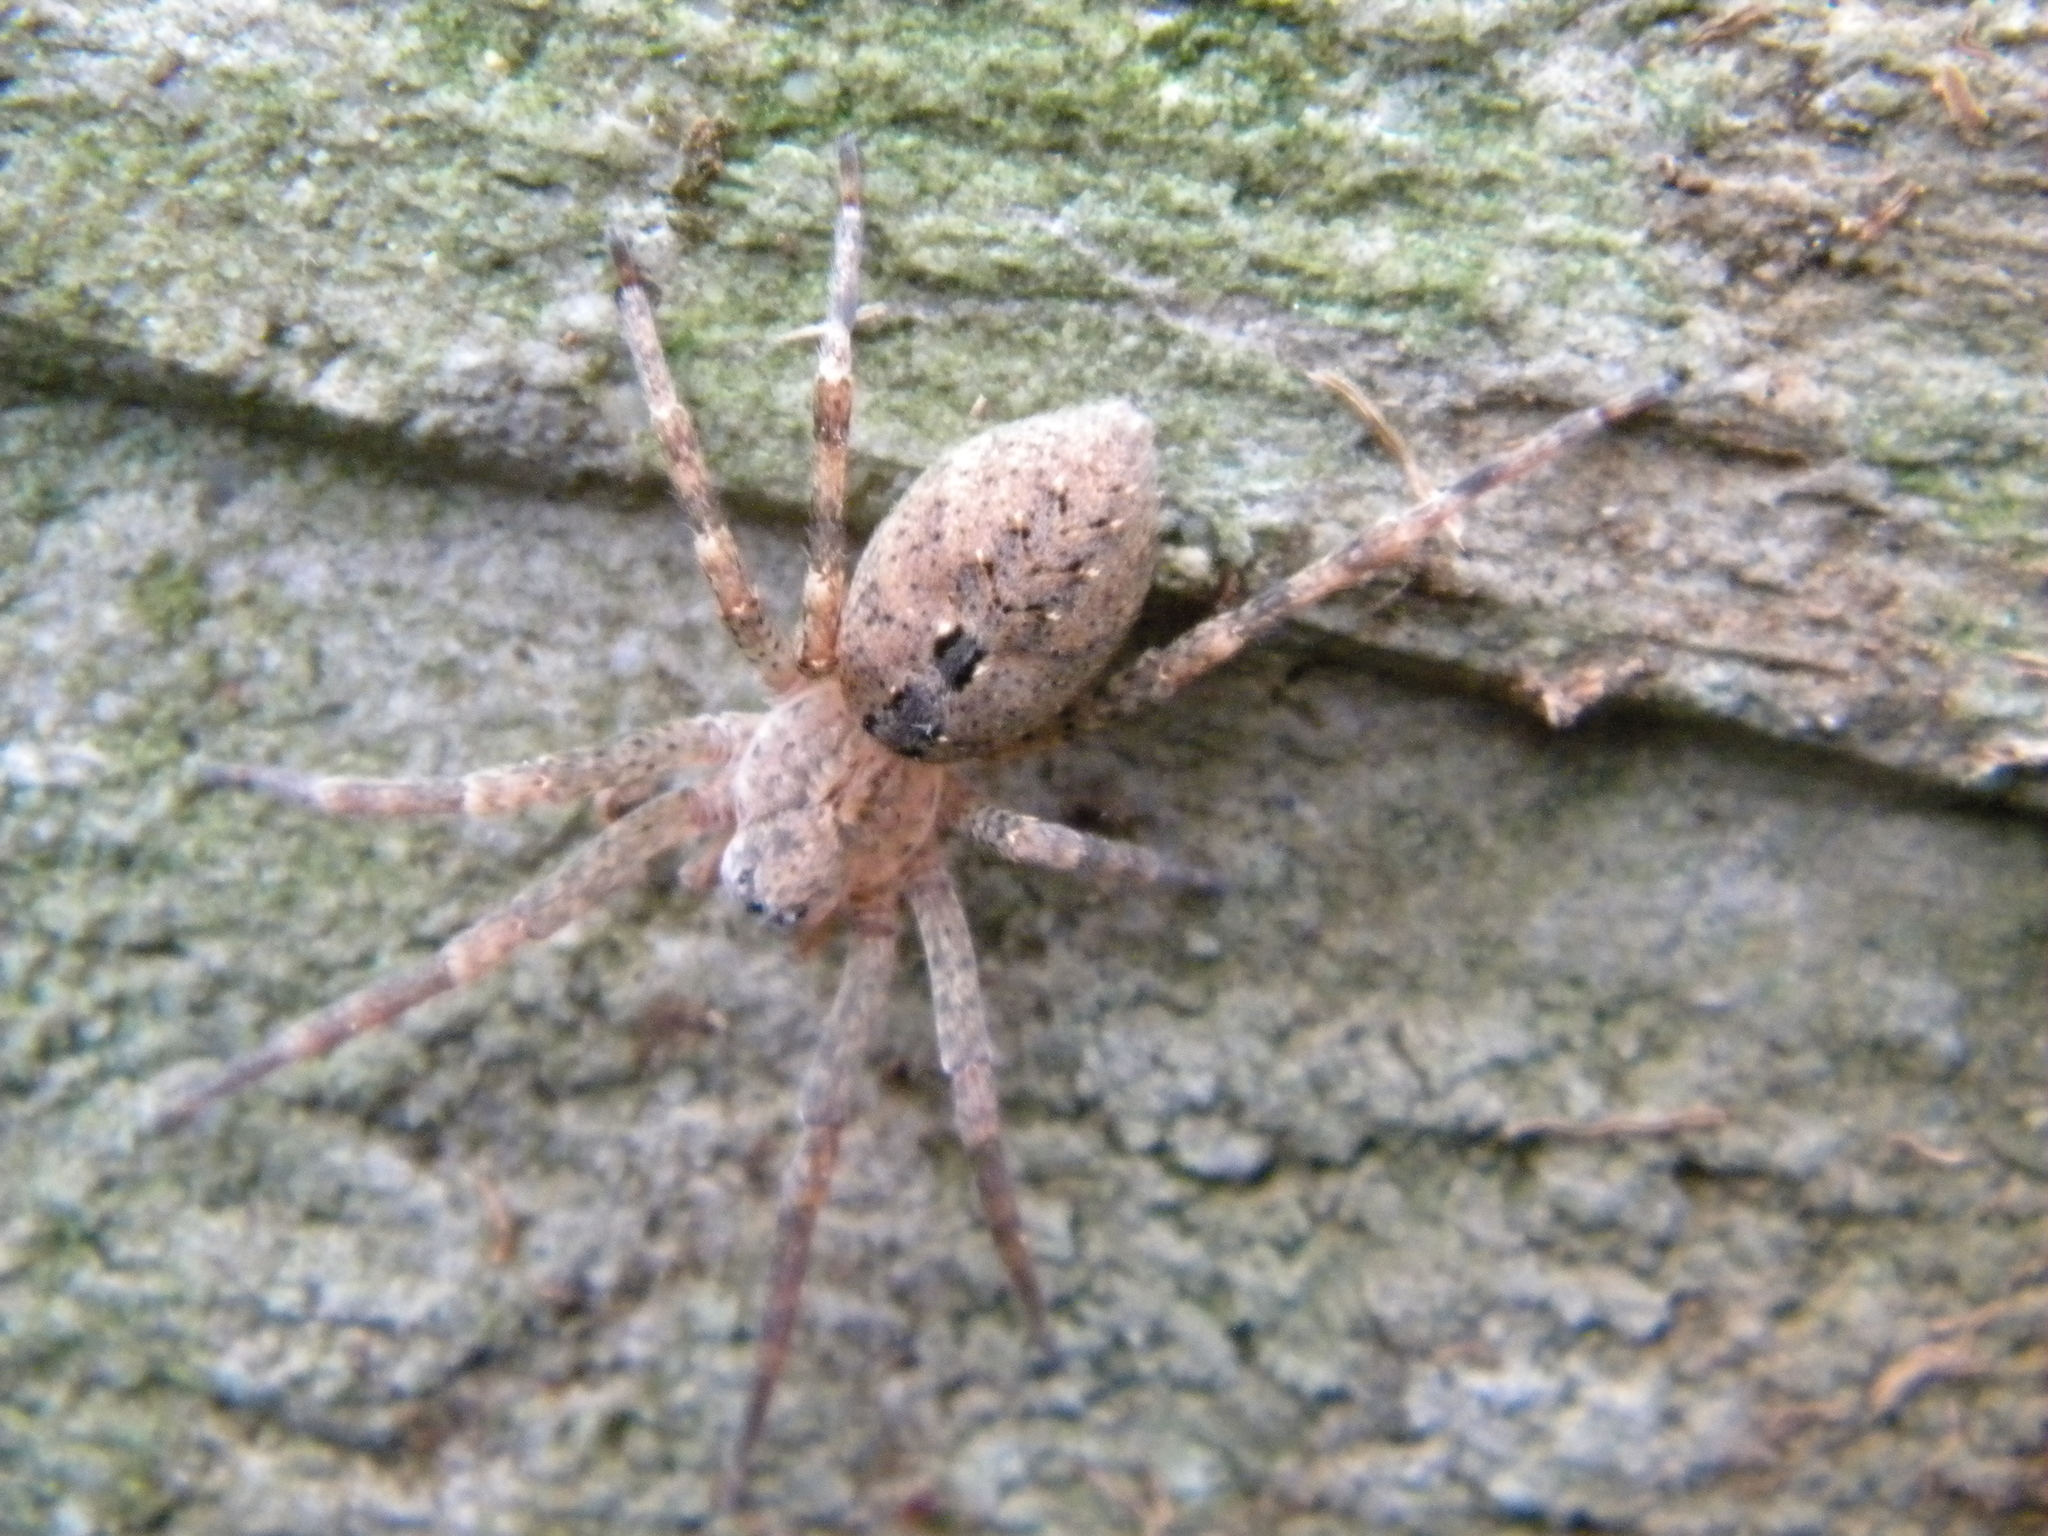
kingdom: Animalia
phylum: Arthropoda
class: Arachnida
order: Araneae
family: Zoropsidae
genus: Zoropsis
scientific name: Zoropsis lutea
